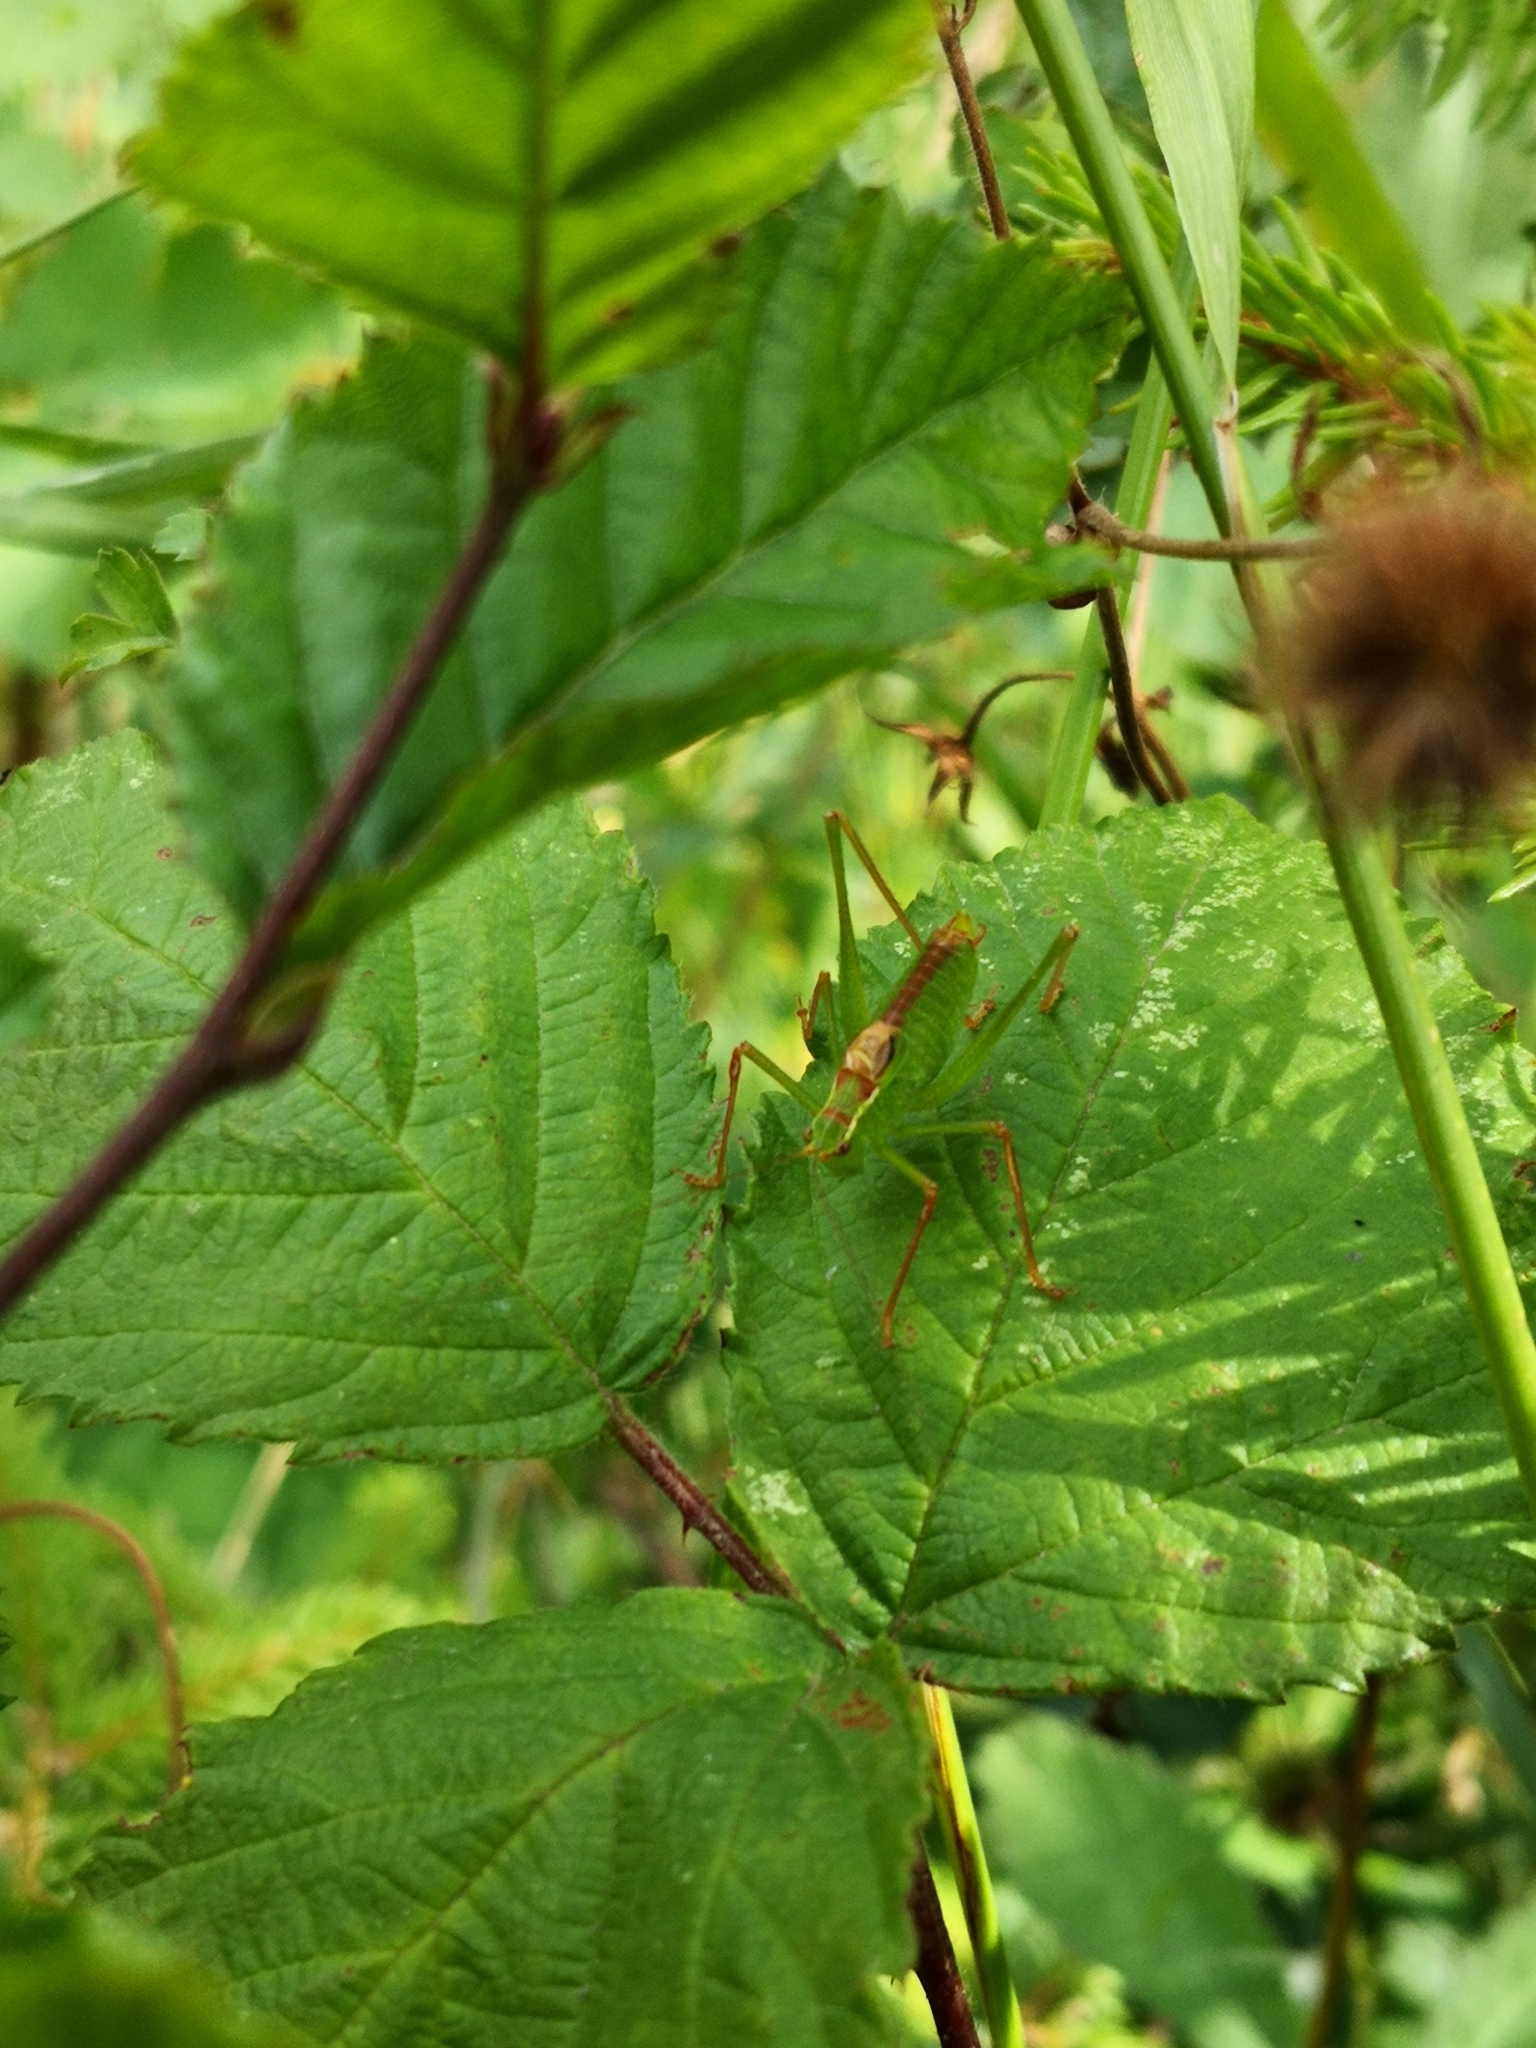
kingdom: Animalia
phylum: Arthropoda
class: Insecta
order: Orthoptera
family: Tettigoniidae
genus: Leptophyes
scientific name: Leptophyes punctatissima
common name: Speckled bush-cricket
